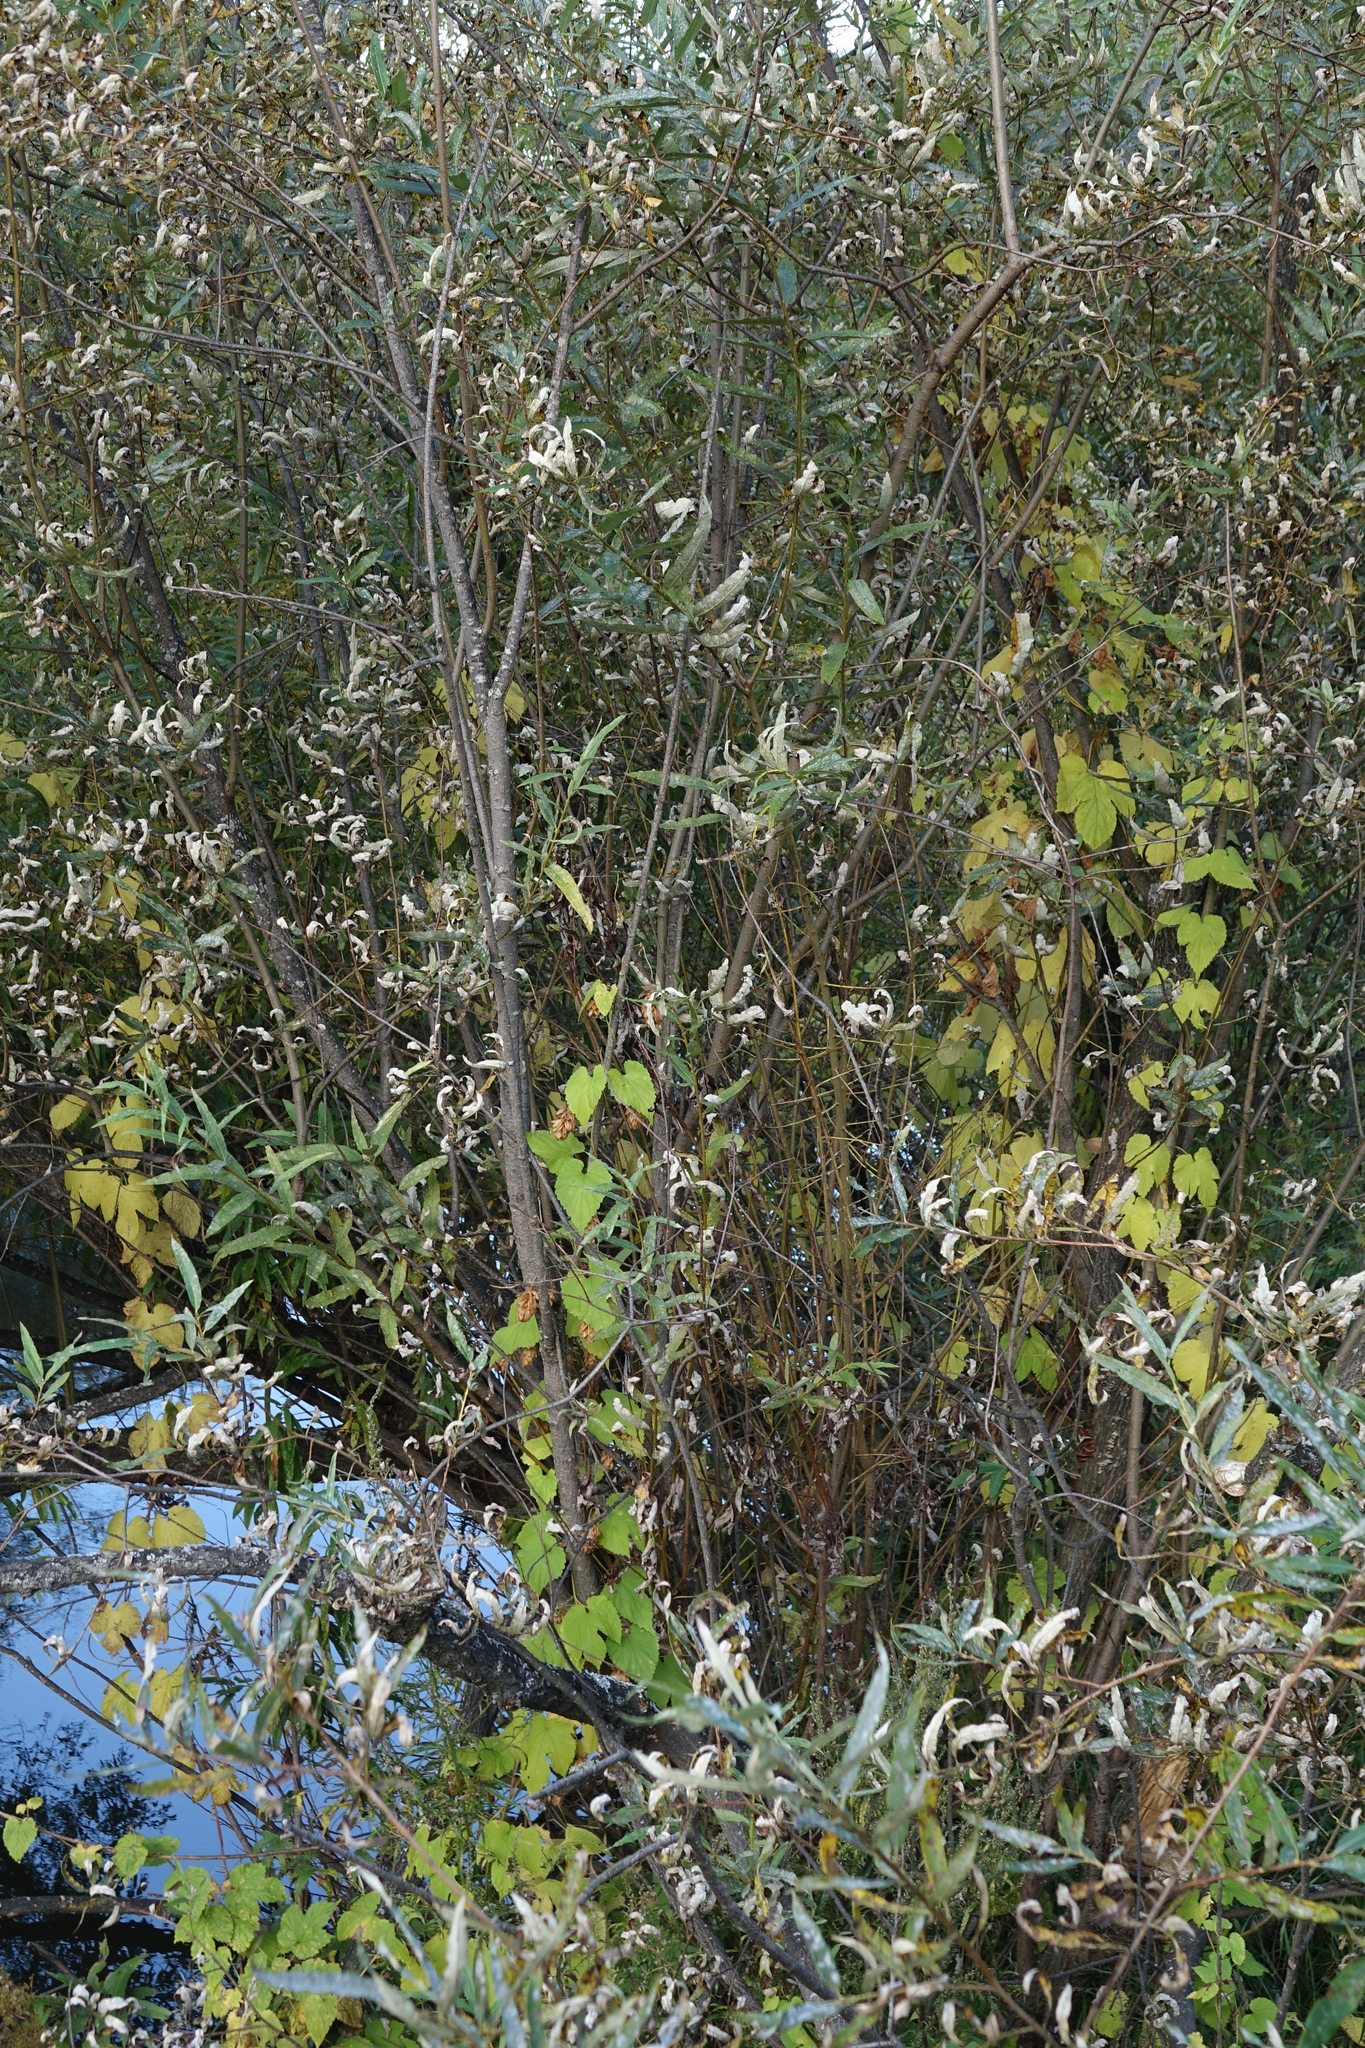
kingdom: Plantae
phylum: Tracheophyta
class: Magnoliopsida
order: Rosales
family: Cannabaceae
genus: Humulus
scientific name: Humulus lupulus
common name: Hop
